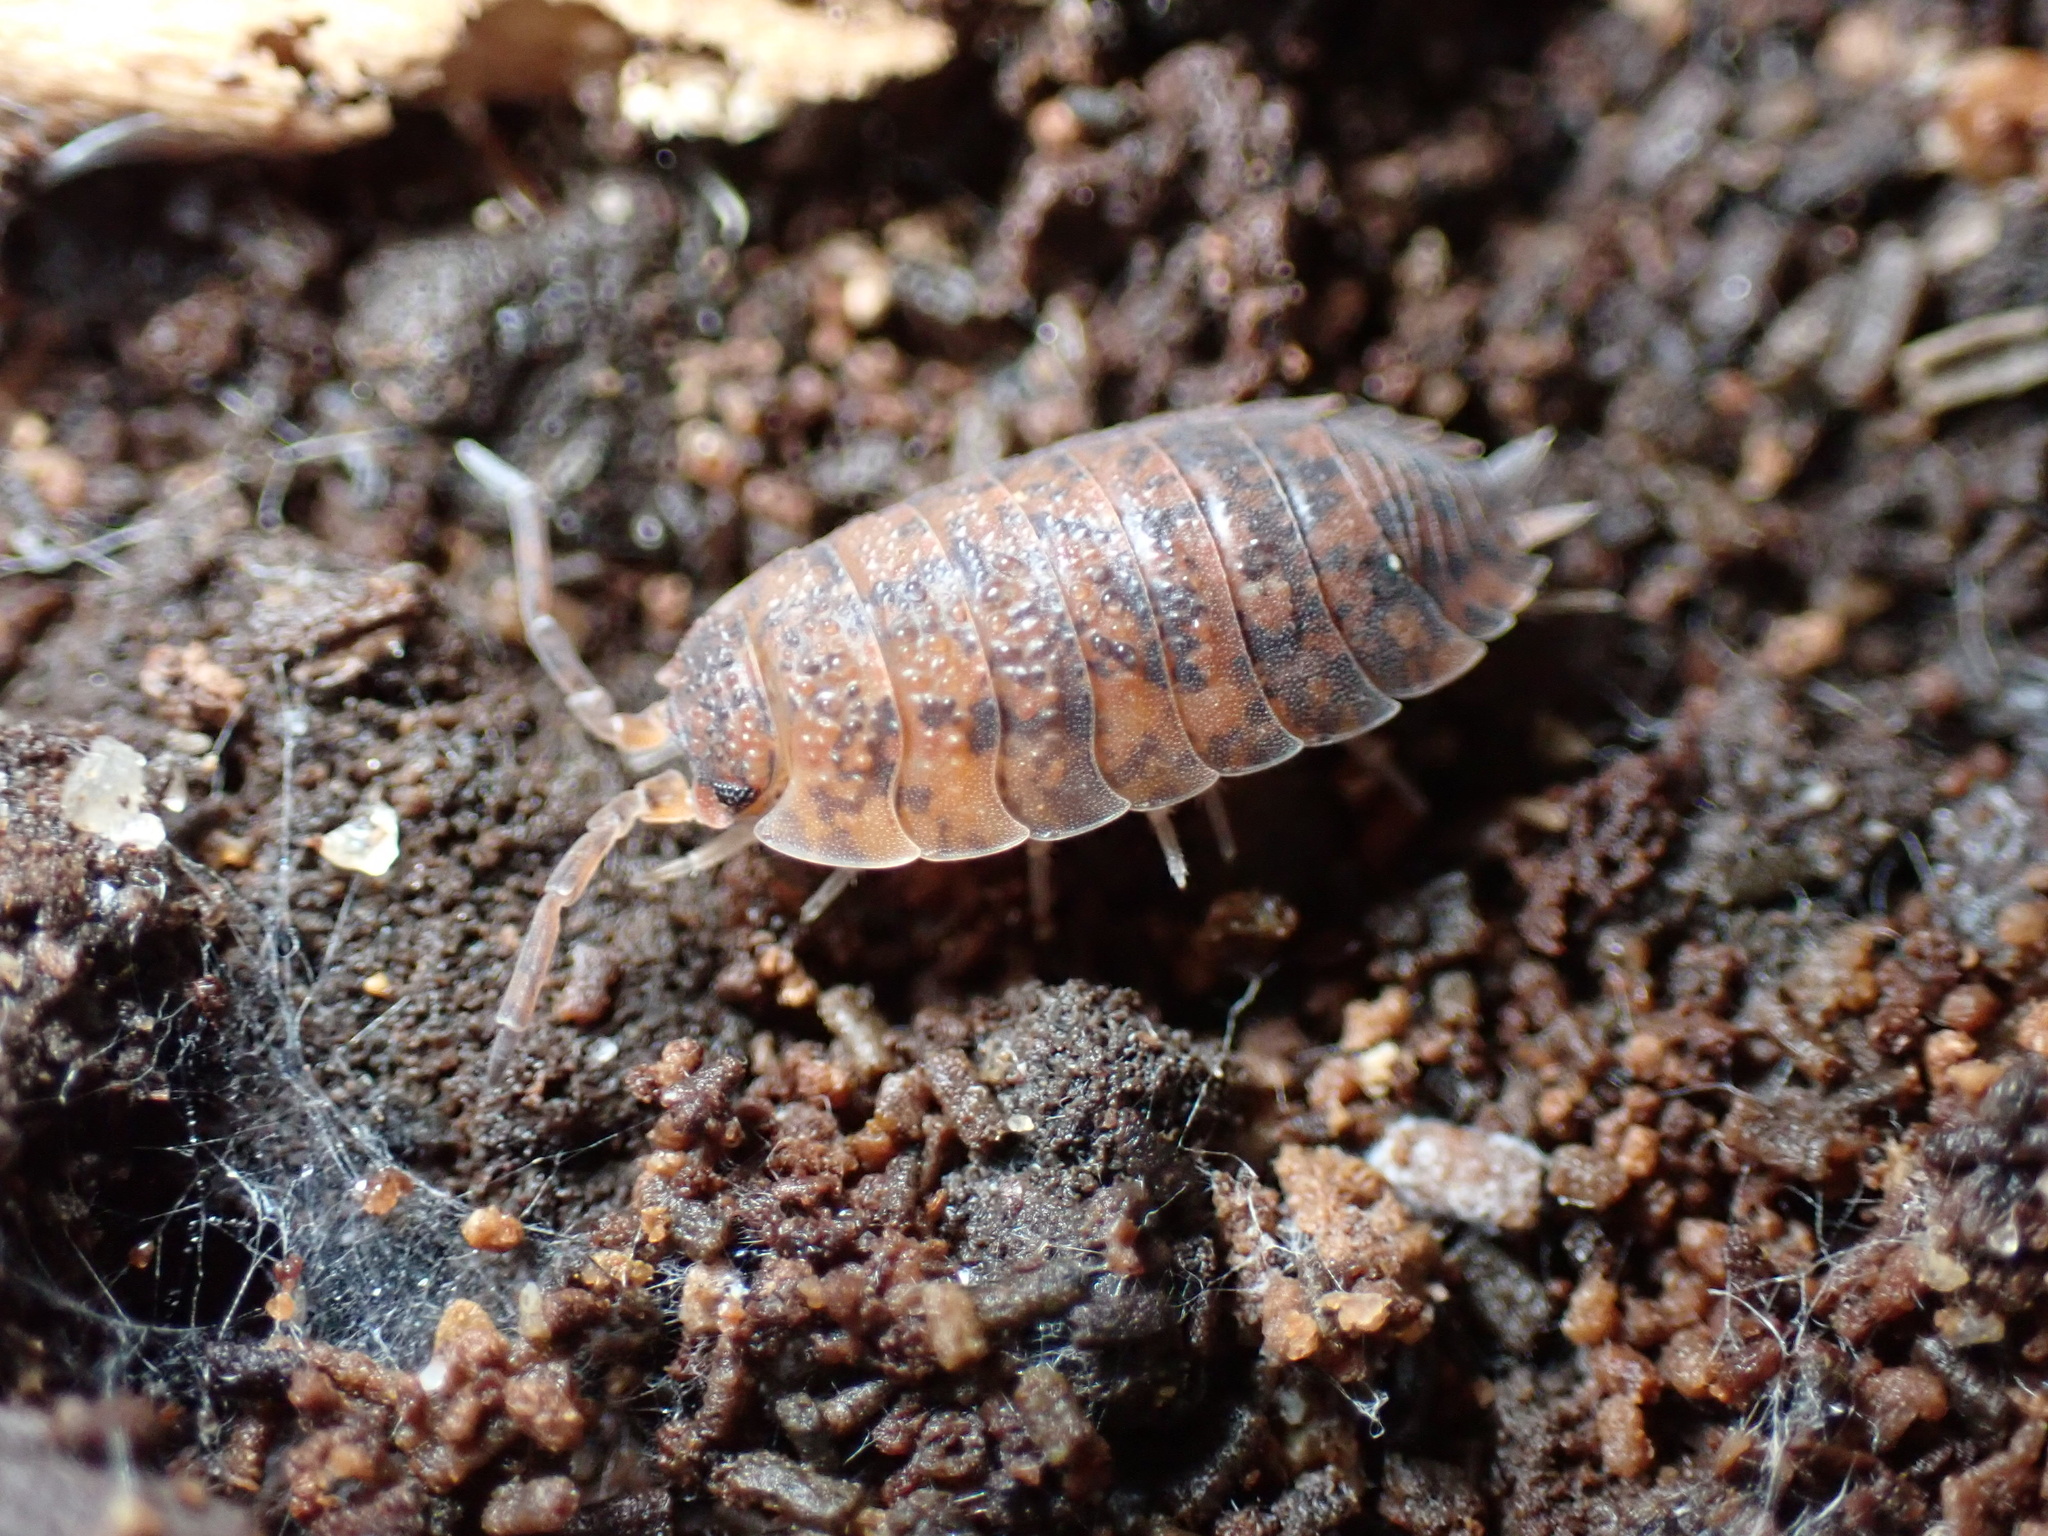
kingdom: Animalia
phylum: Arthropoda
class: Malacostraca
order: Isopoda
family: Porcellionidae
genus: Porcellio
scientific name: Porcellio scaber
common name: Common rough woodlouse
